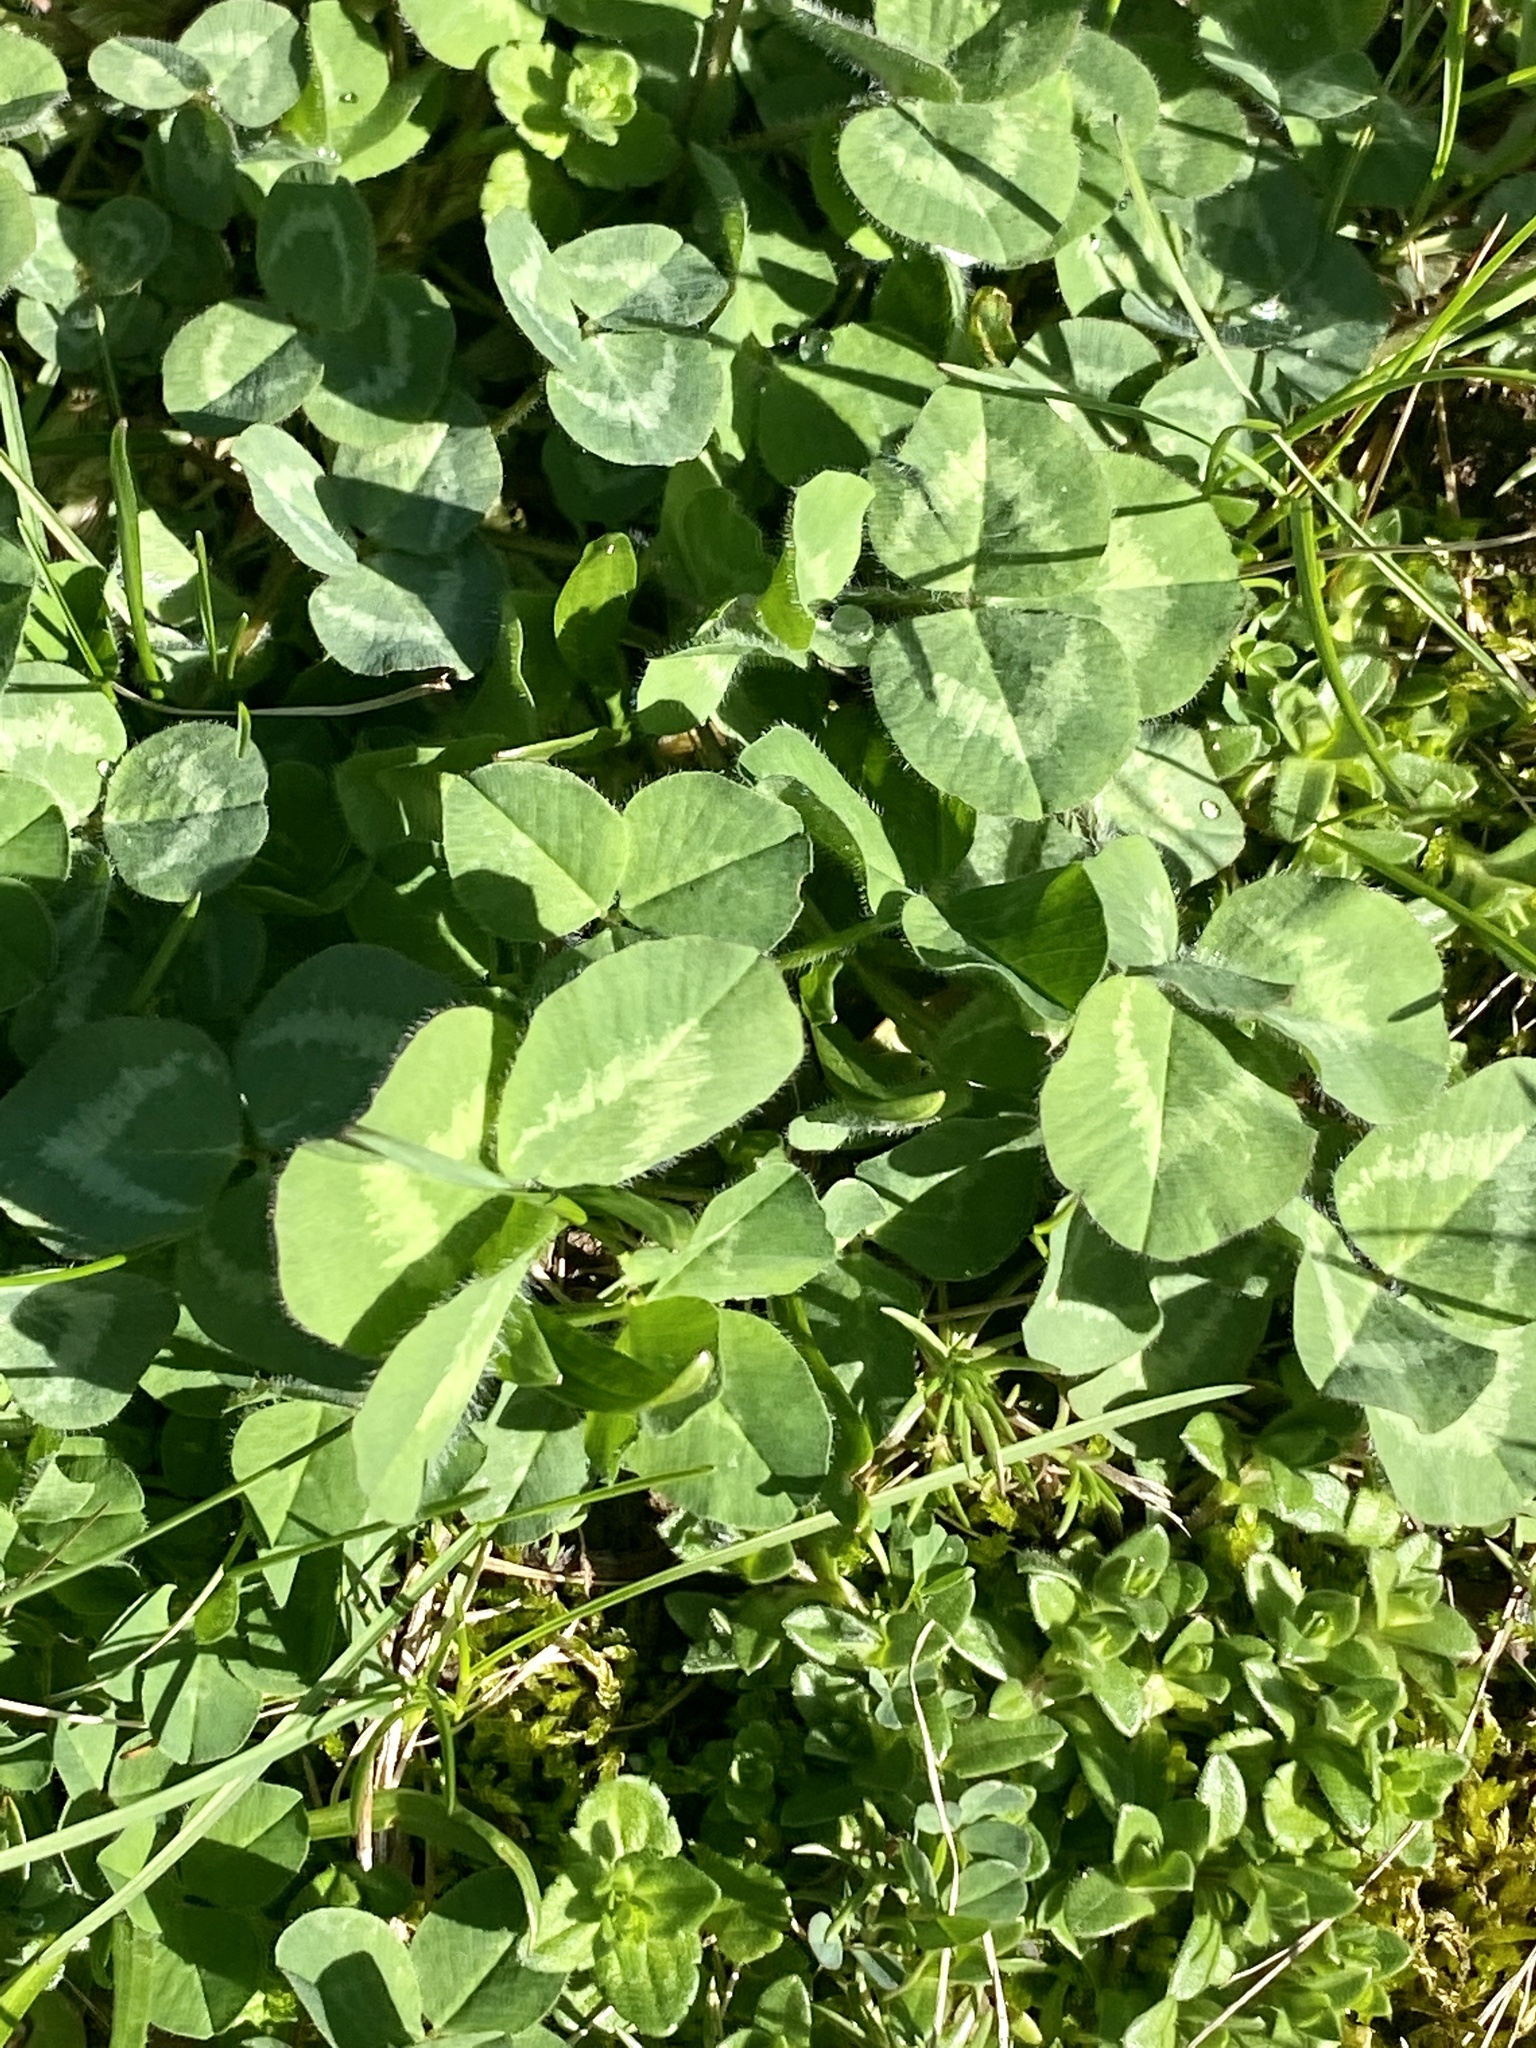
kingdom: Plantae
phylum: Tracheophyta
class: Magnoliopsida
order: Fabales
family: Fabaceae
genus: Trifolium
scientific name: Trifolium pratense
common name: Red clover
